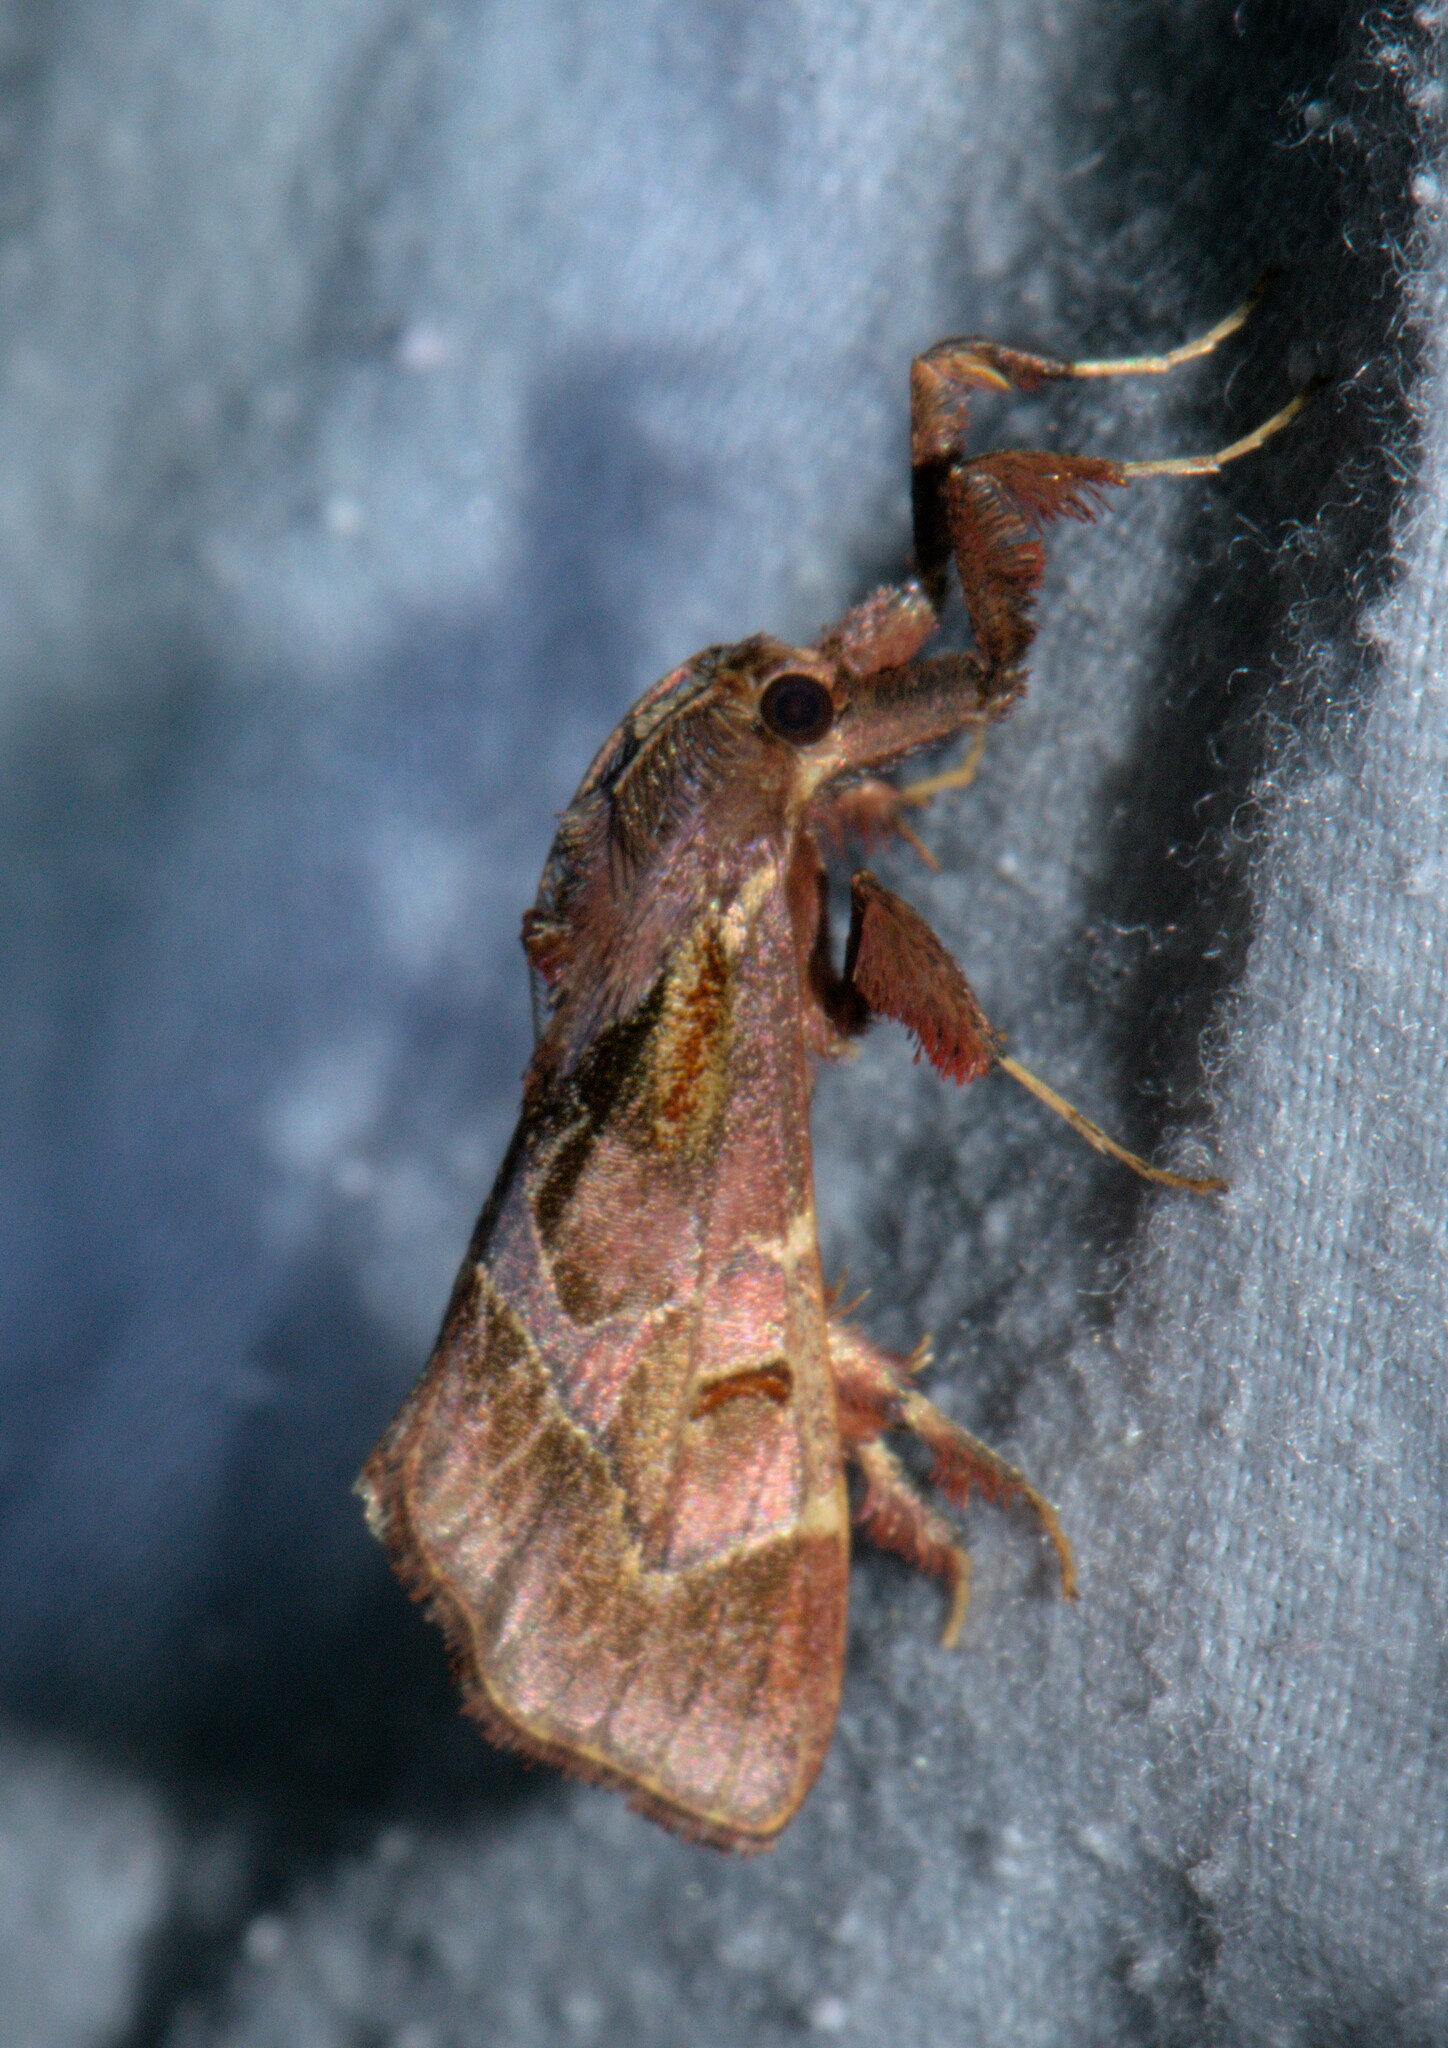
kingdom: Animalia
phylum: Arthropoda
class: Insecta
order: Lepidoptera
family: Pyralidae
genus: Sacada
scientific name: Sacada discinota
